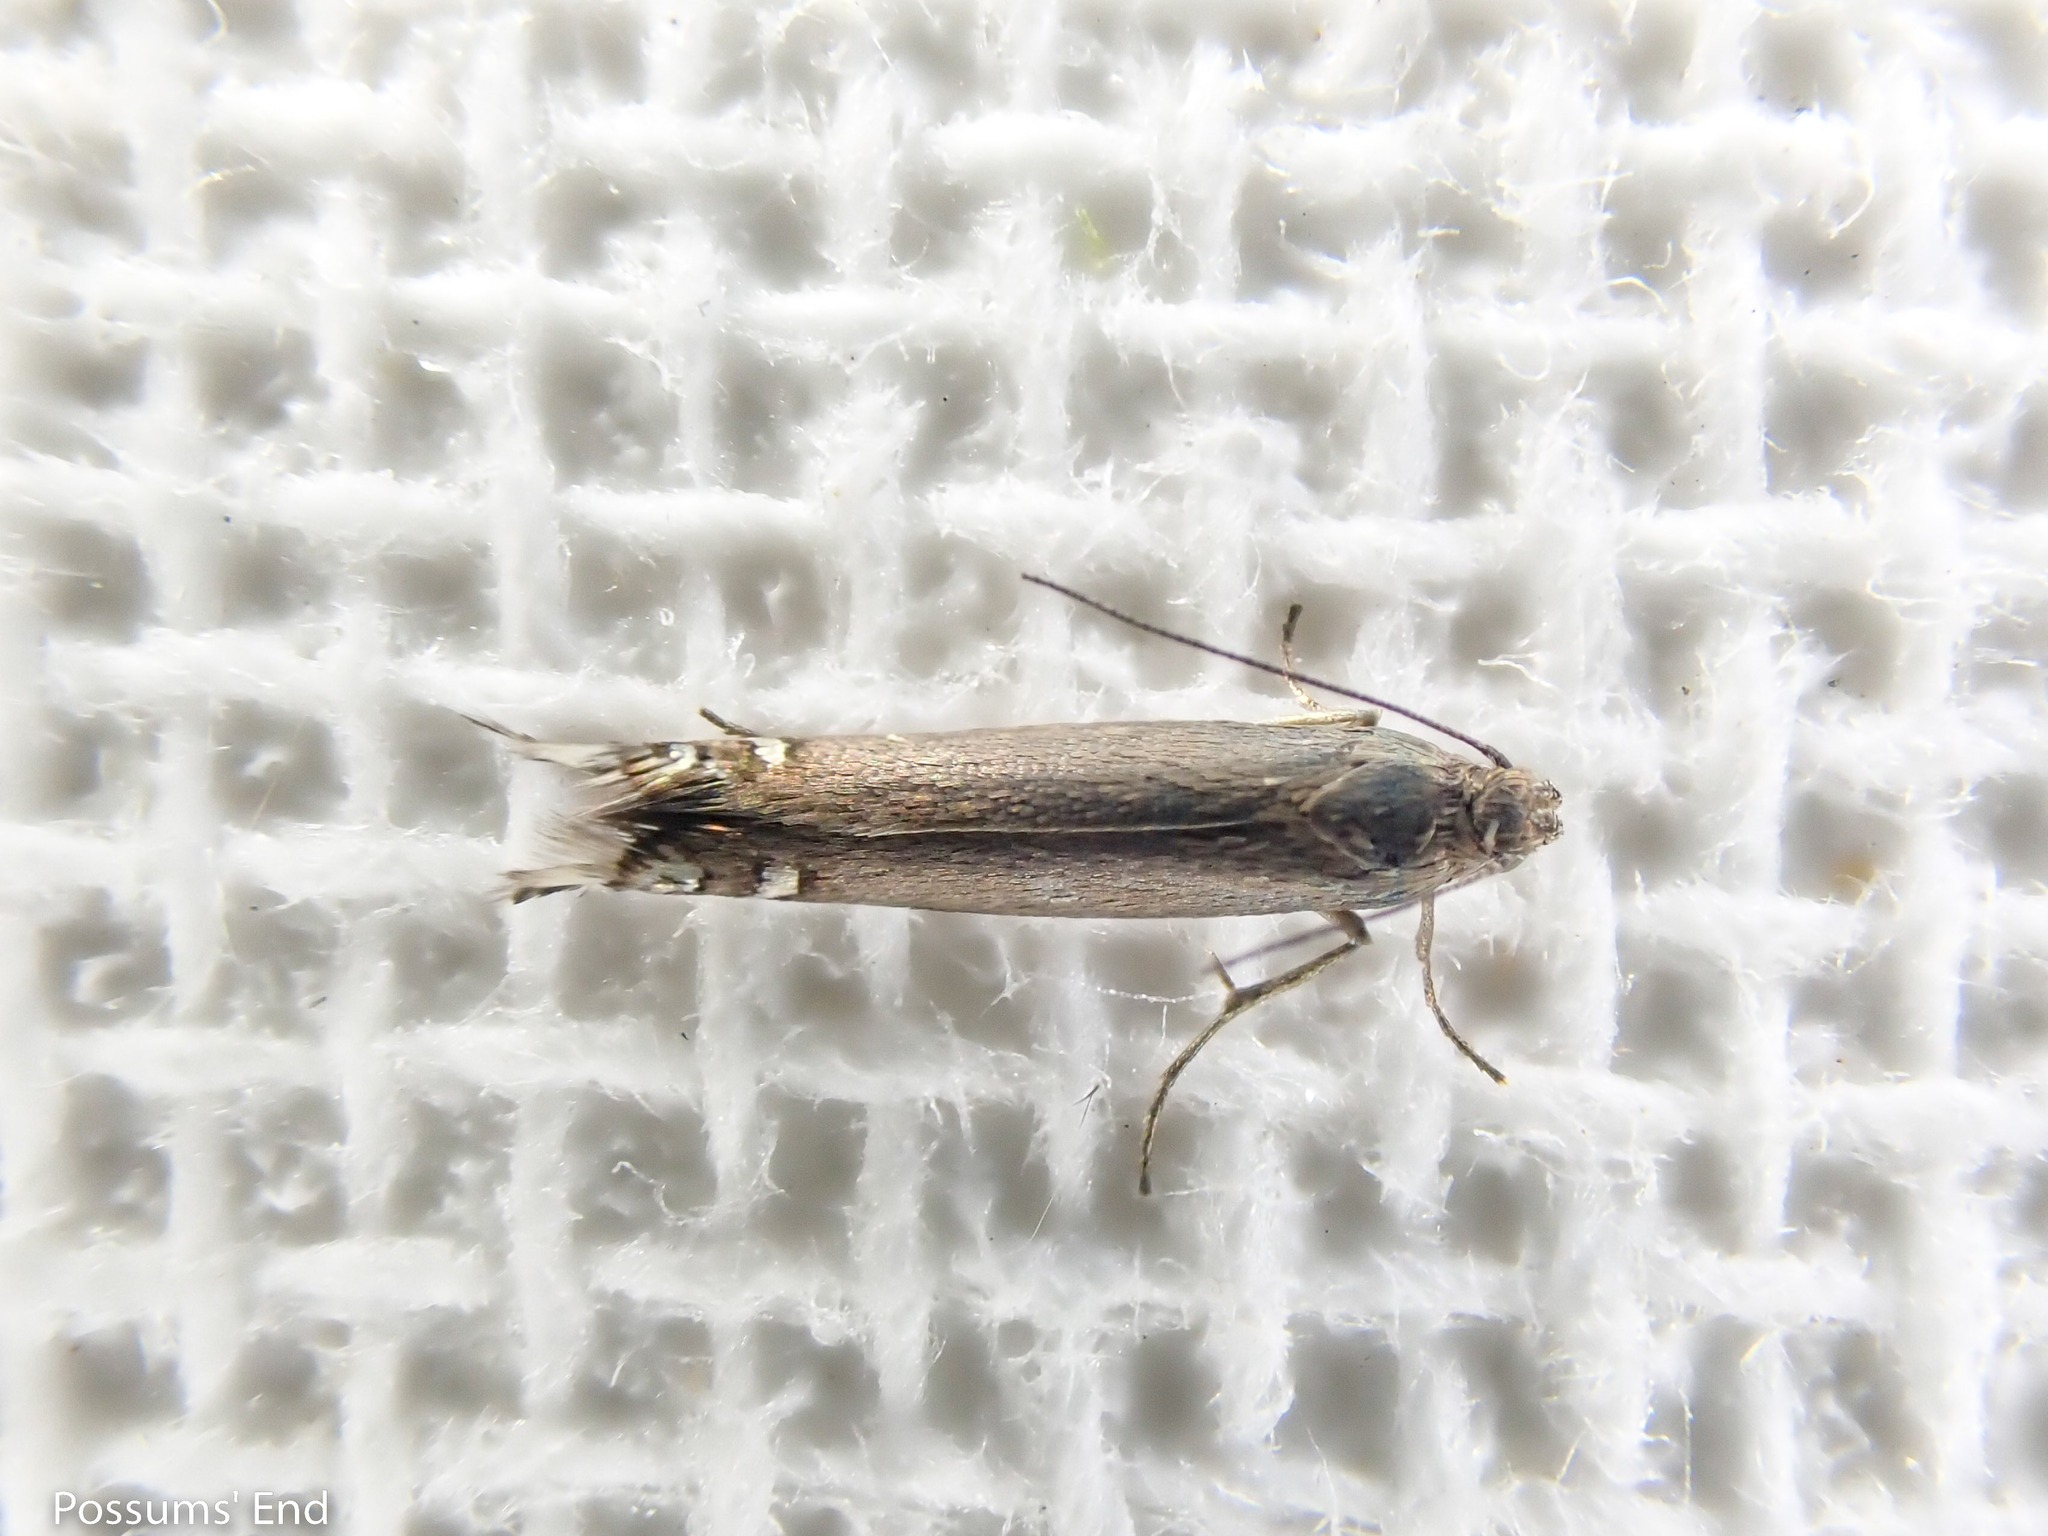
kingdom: Animalia
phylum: Arthropoda
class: Insecta
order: Lepidoptera
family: Glyphipterigidae
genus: Glyphipterix
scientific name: Glyphipterix iocheaera
